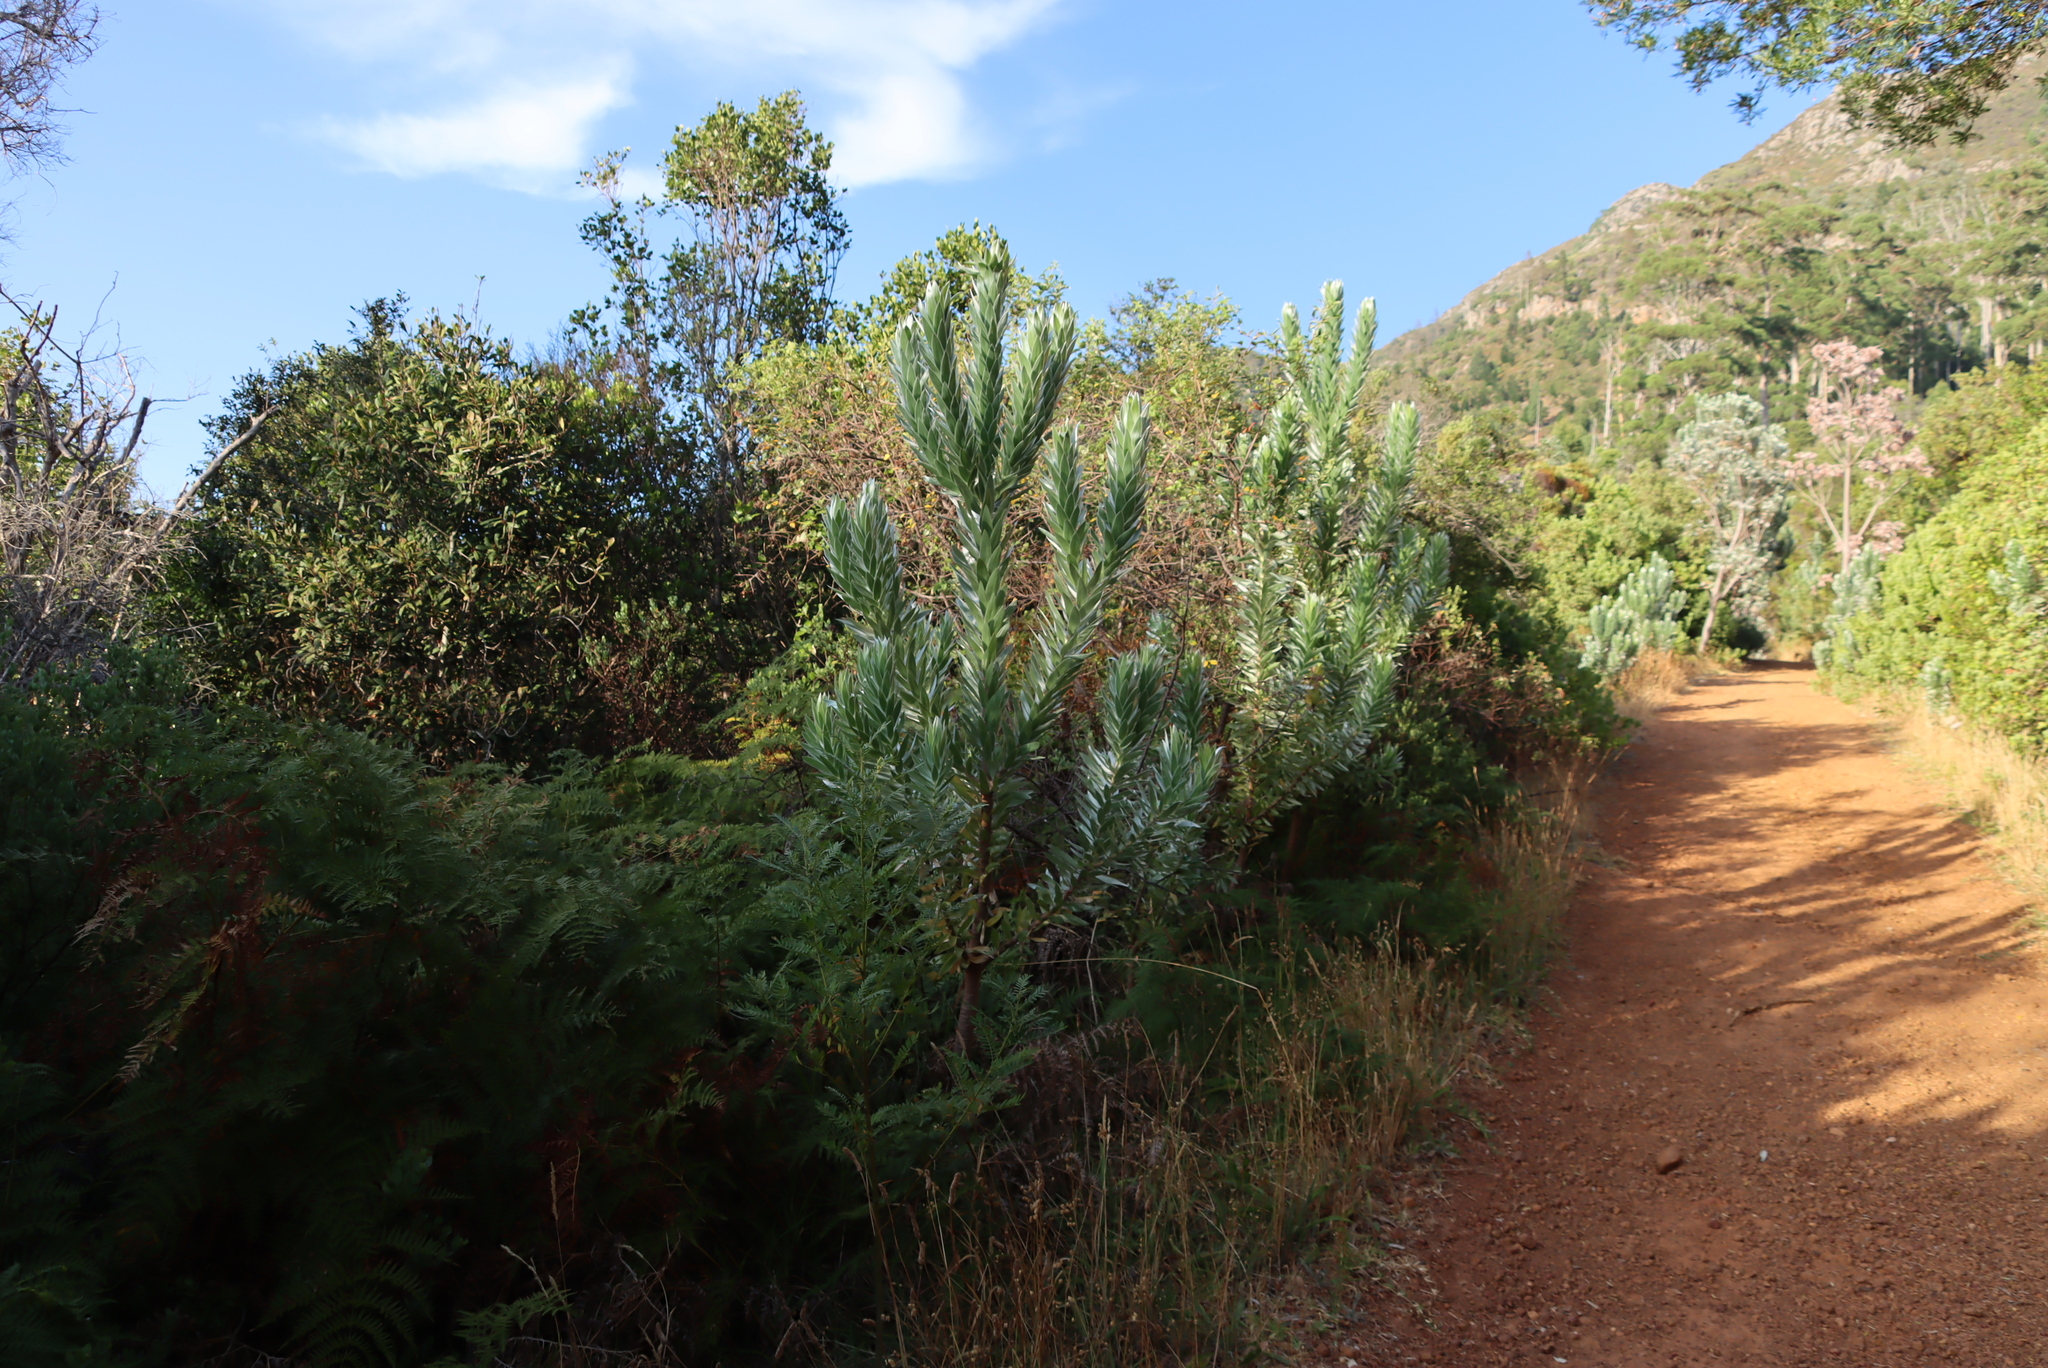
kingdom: Plantae
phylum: Tracheophyta
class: Magnoliopsida
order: Proteales
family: Proteaceae
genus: Leucadendron
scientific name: Leucadendron argenteum
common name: Cape silver tree
